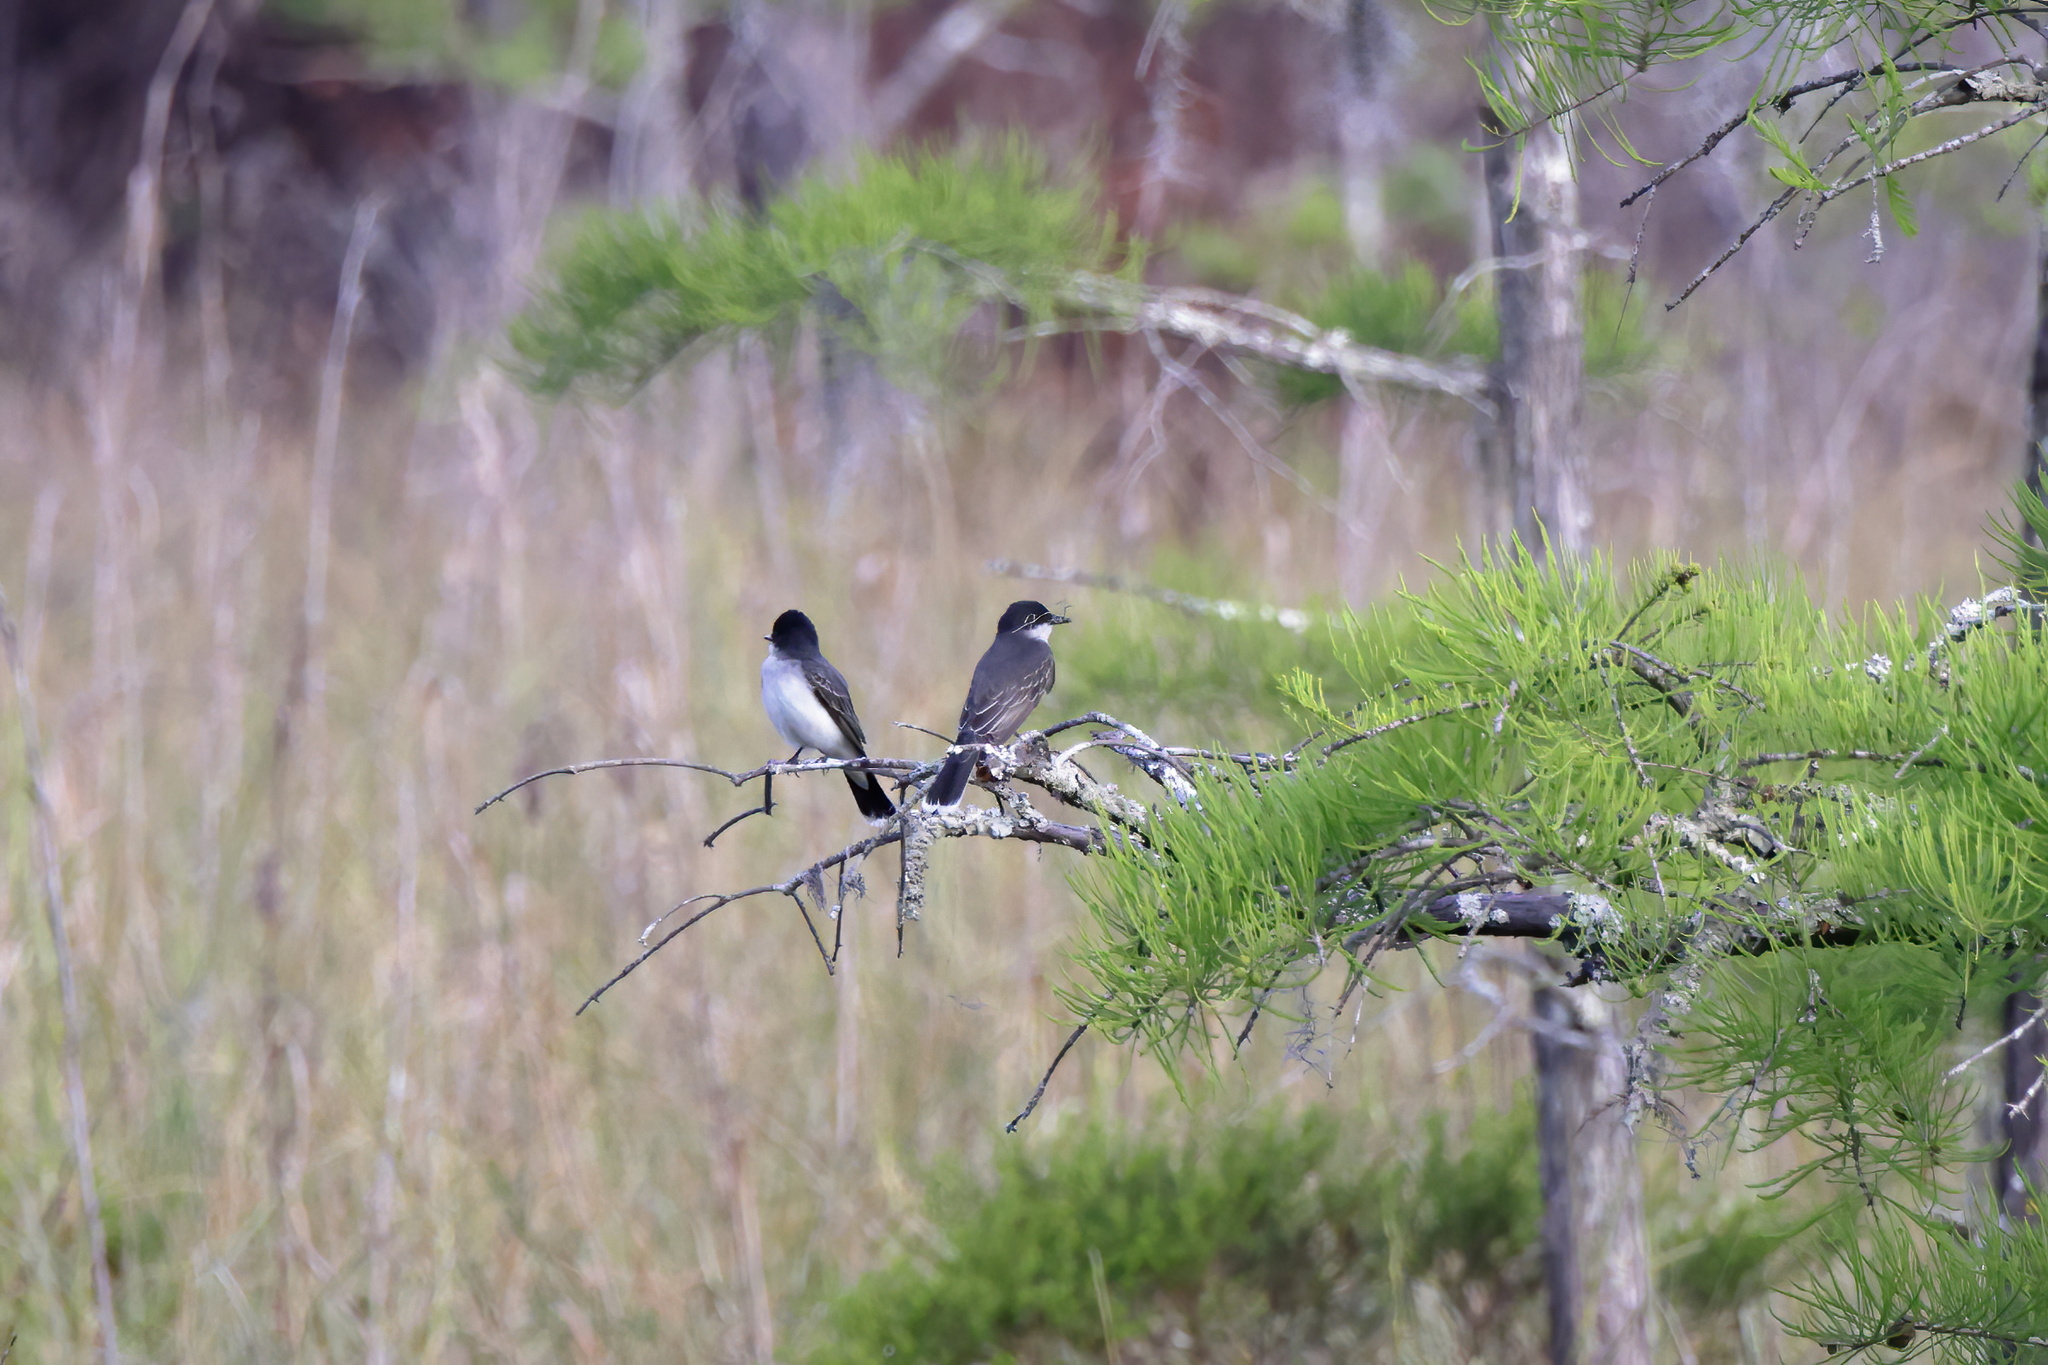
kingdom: Animalia
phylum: Chordata
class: Aves
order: Passeriformes
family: Tyrannidae
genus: Tyrannus
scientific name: Tyrannus tyrannus
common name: Eastern kingbird
